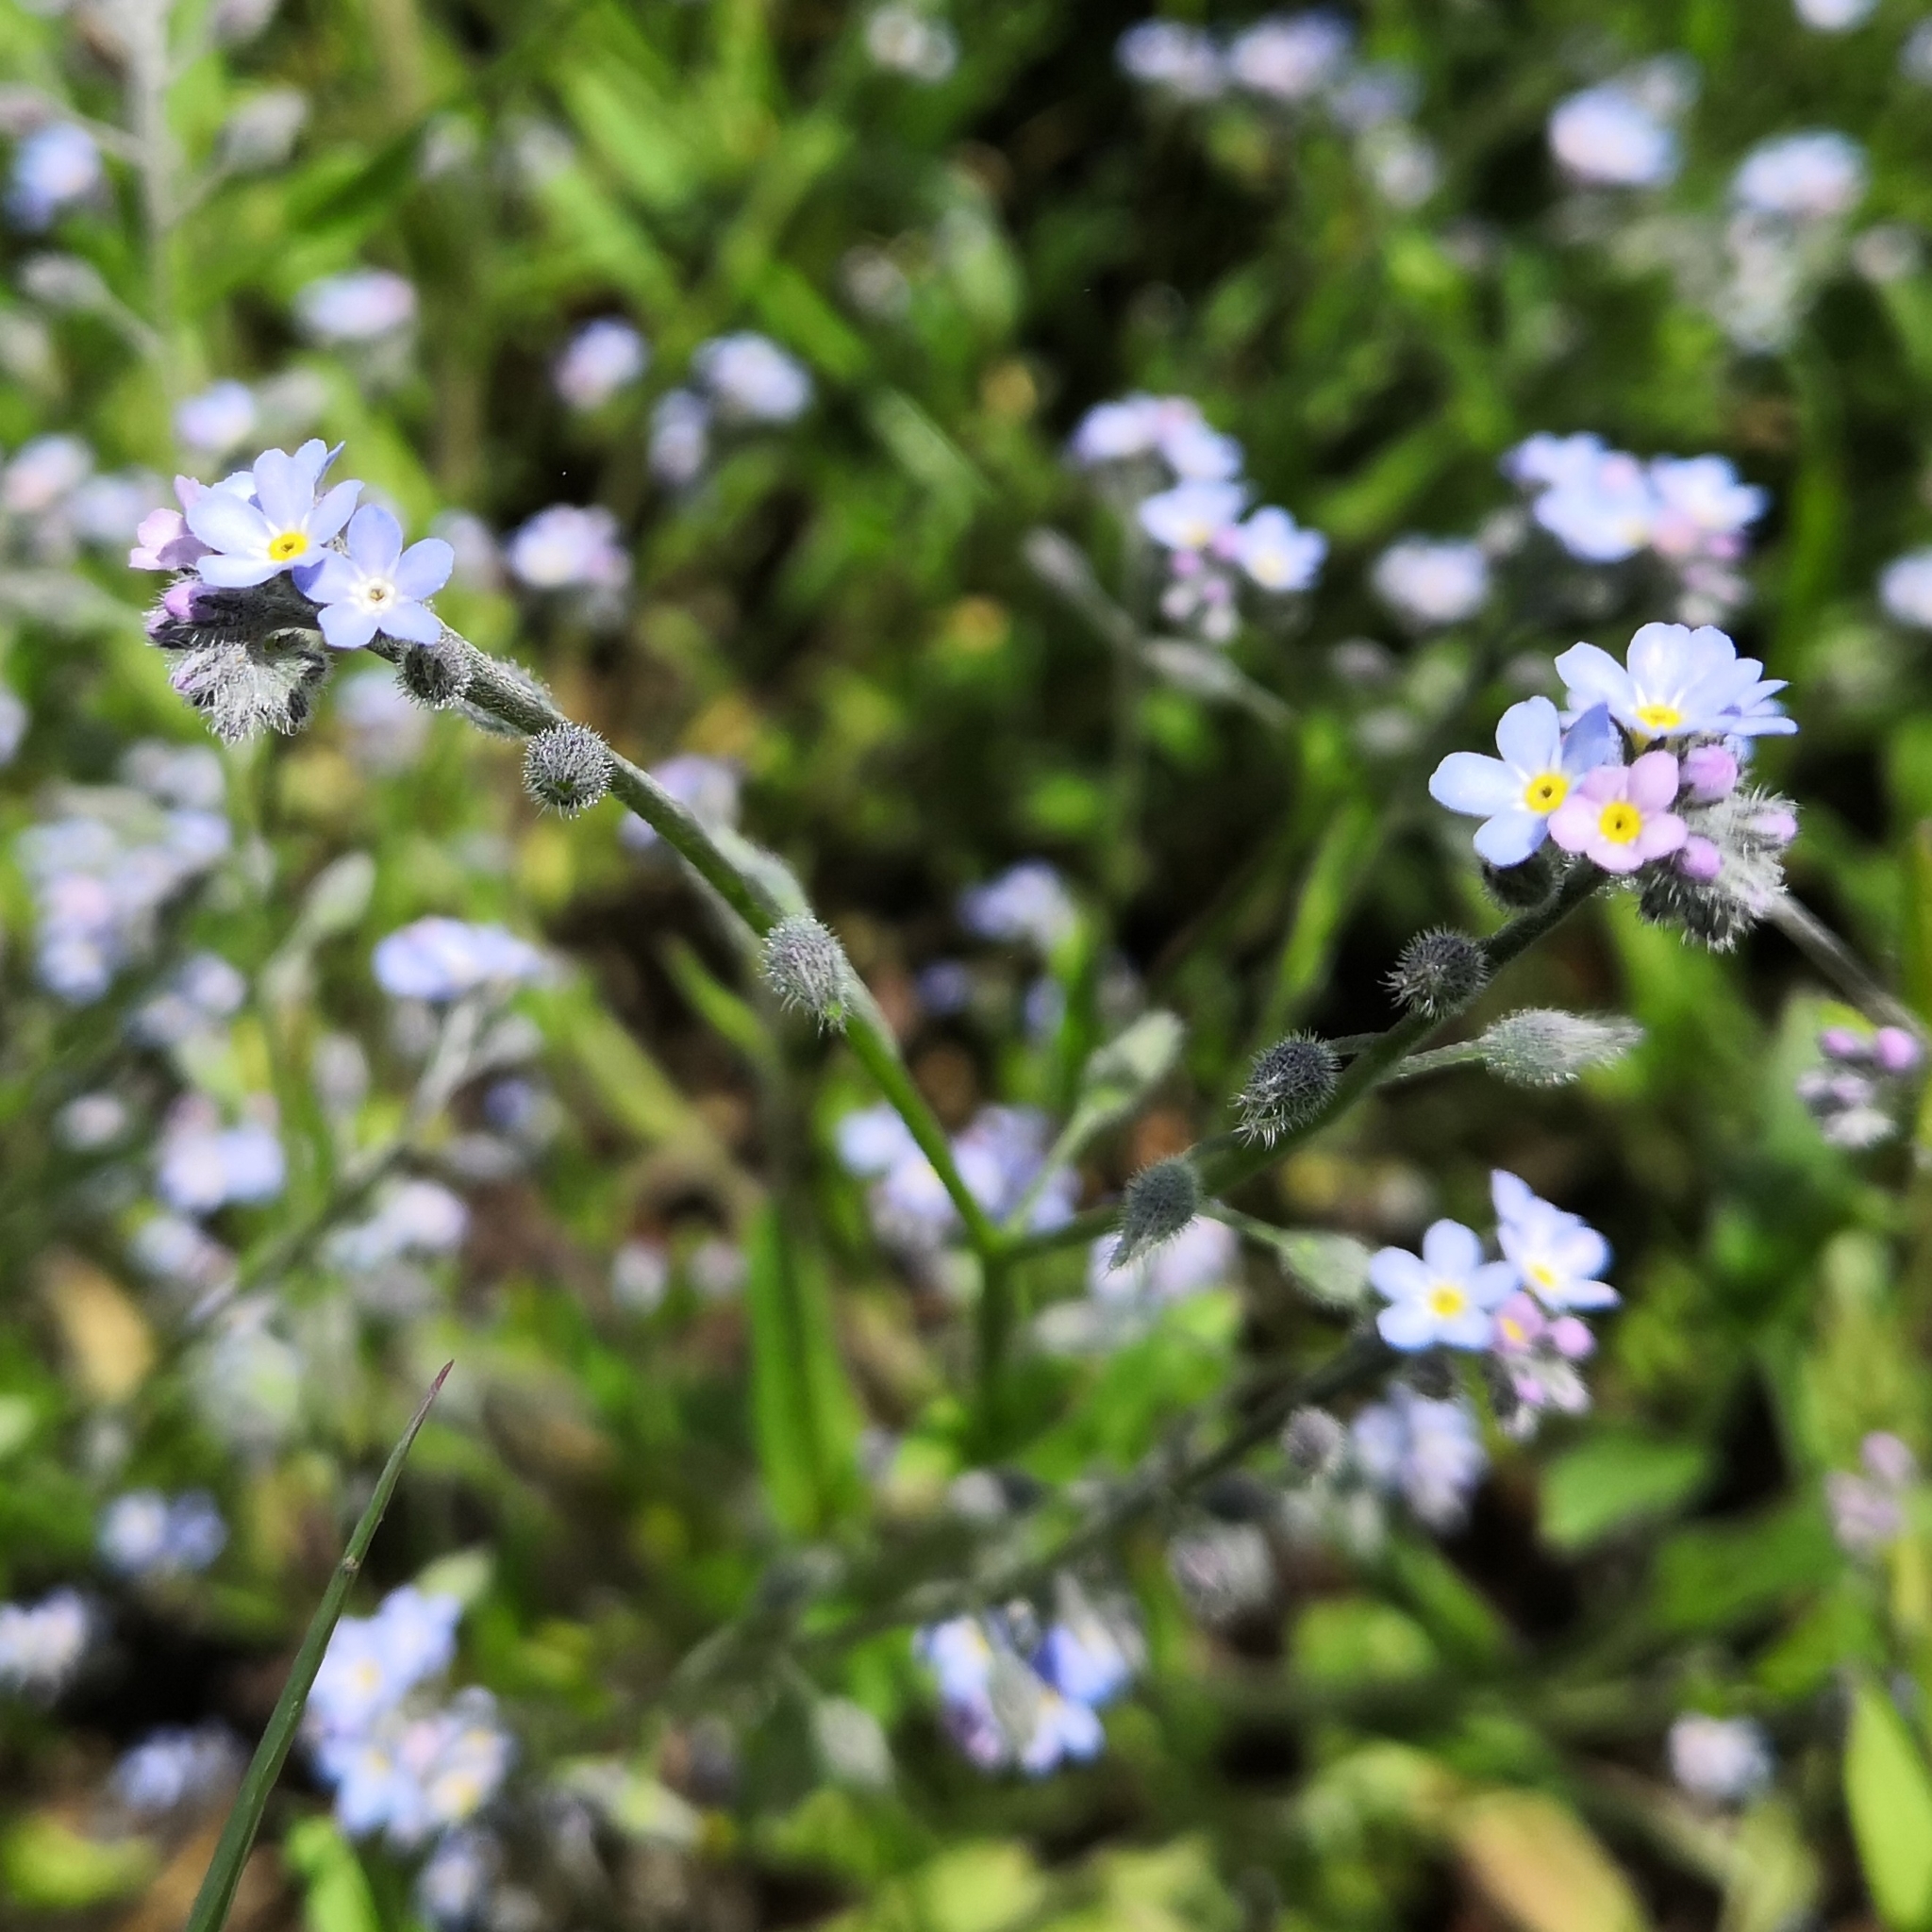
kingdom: Plantae
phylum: Tracheophyta
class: Magnoliopsida
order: Boraginales
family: Boraginaceae
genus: Myosotis
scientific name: Myosotis arvensis
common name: Field forget-me-not
